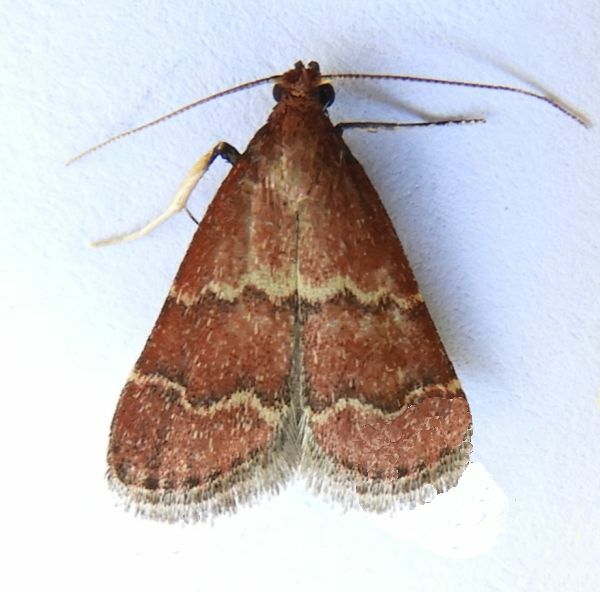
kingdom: Animalia
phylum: Arthropoda
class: Insecta
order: Lepidoptera
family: Pyralidae
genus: Arta
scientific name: Arta Heliades huachucalis
